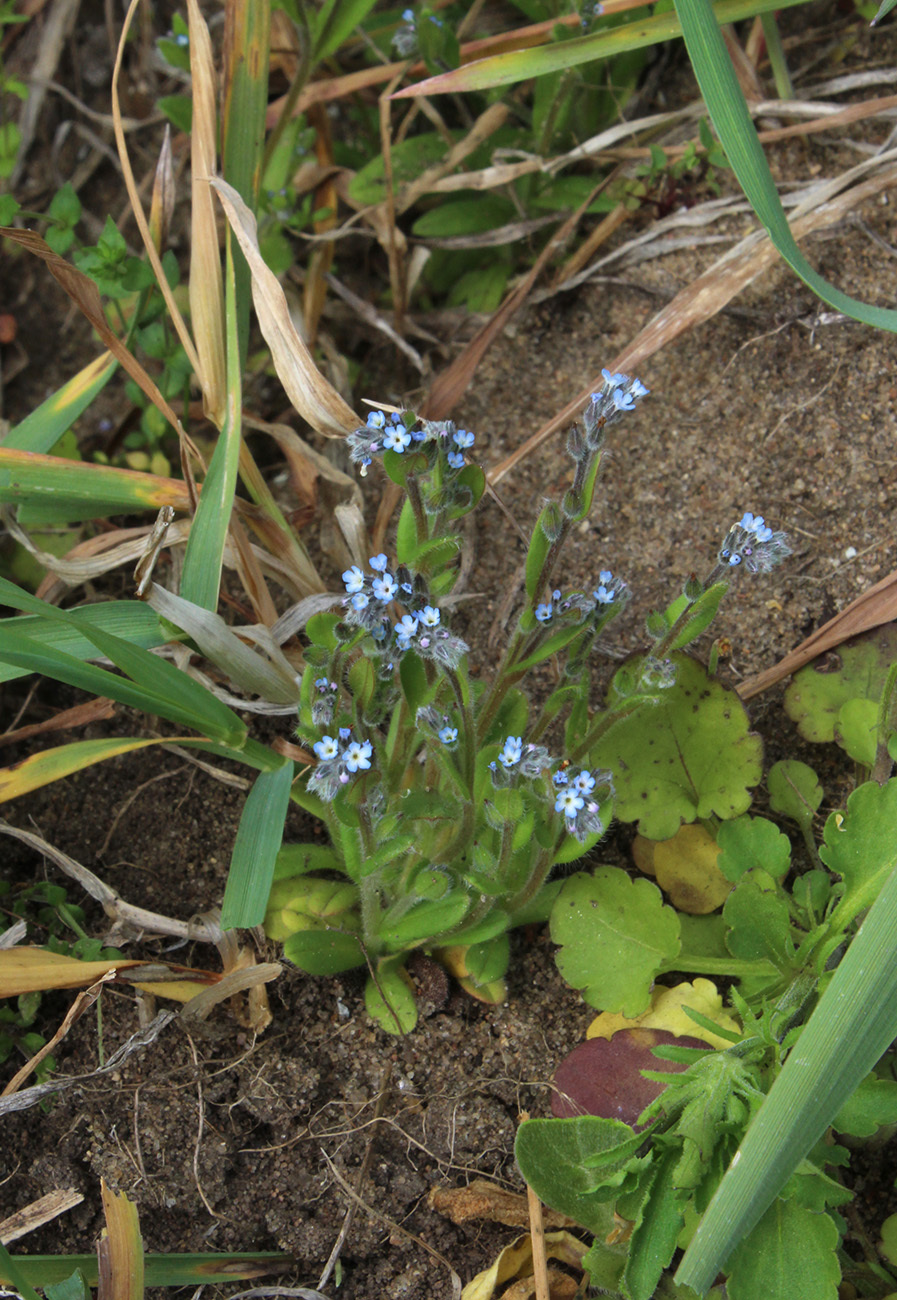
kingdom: Plantae
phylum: Tracheophyta
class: Magnoliopsida
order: Boraginales
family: Boraginaceae
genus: Myosotis
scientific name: Myosotis stricta
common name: Strict forget-me-not
